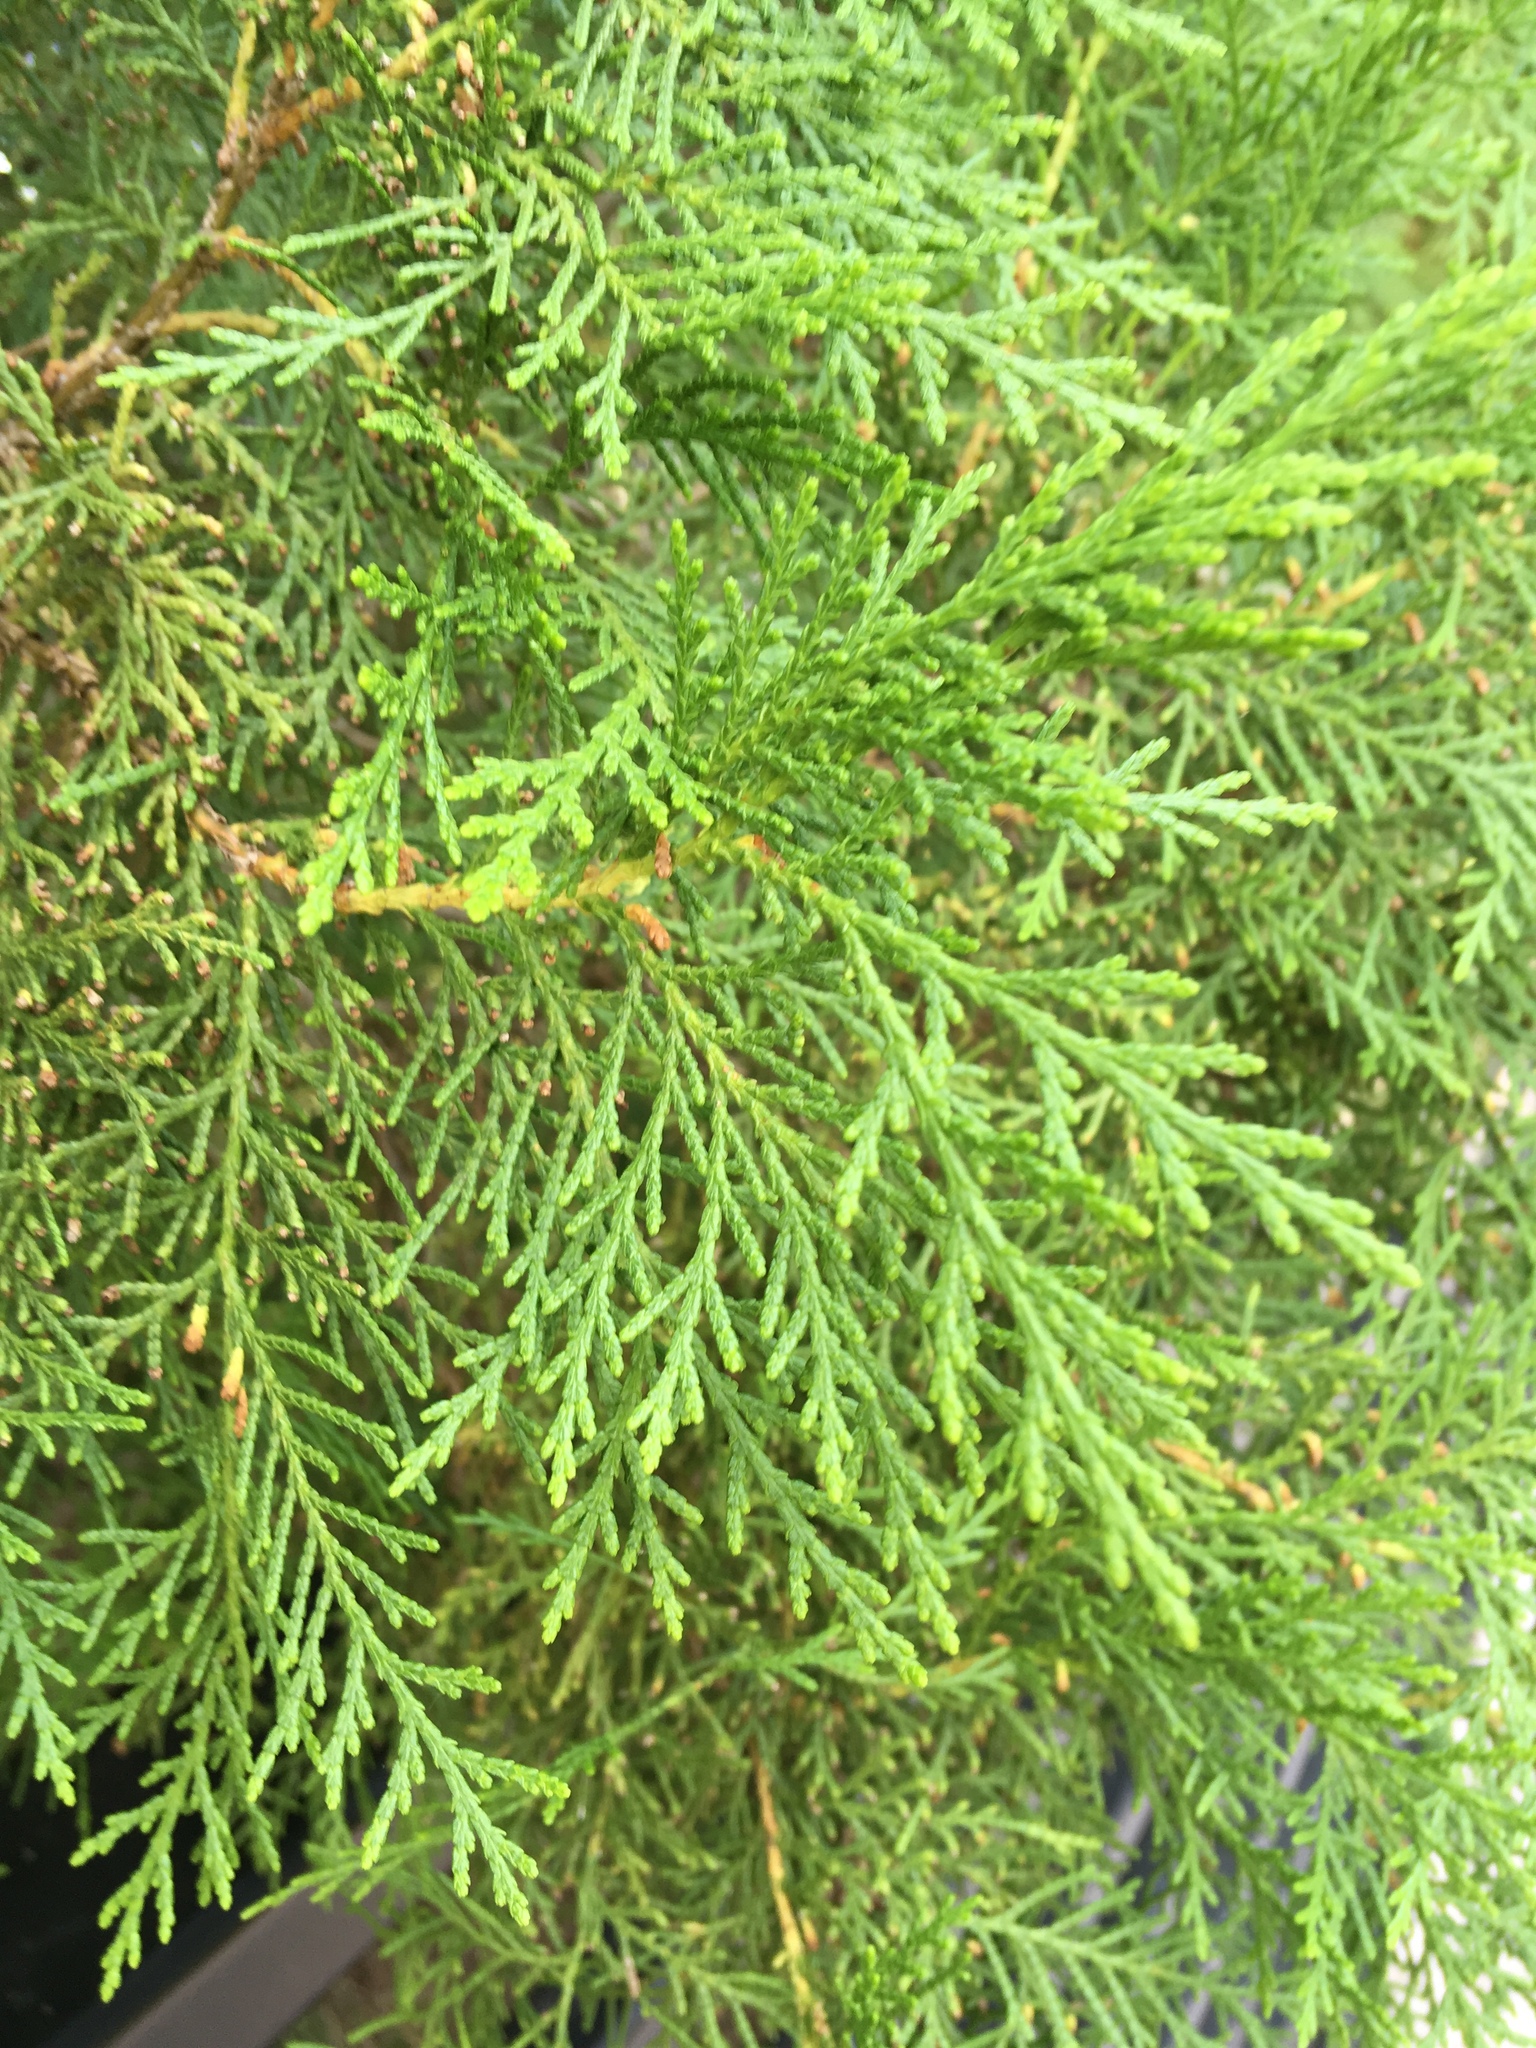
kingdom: Plantae
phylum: Tracheophyta
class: Pinopsida
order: Pinales
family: Cupressaceae
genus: Thuja
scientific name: Thuja occidentalis
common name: Northern white-cedar
